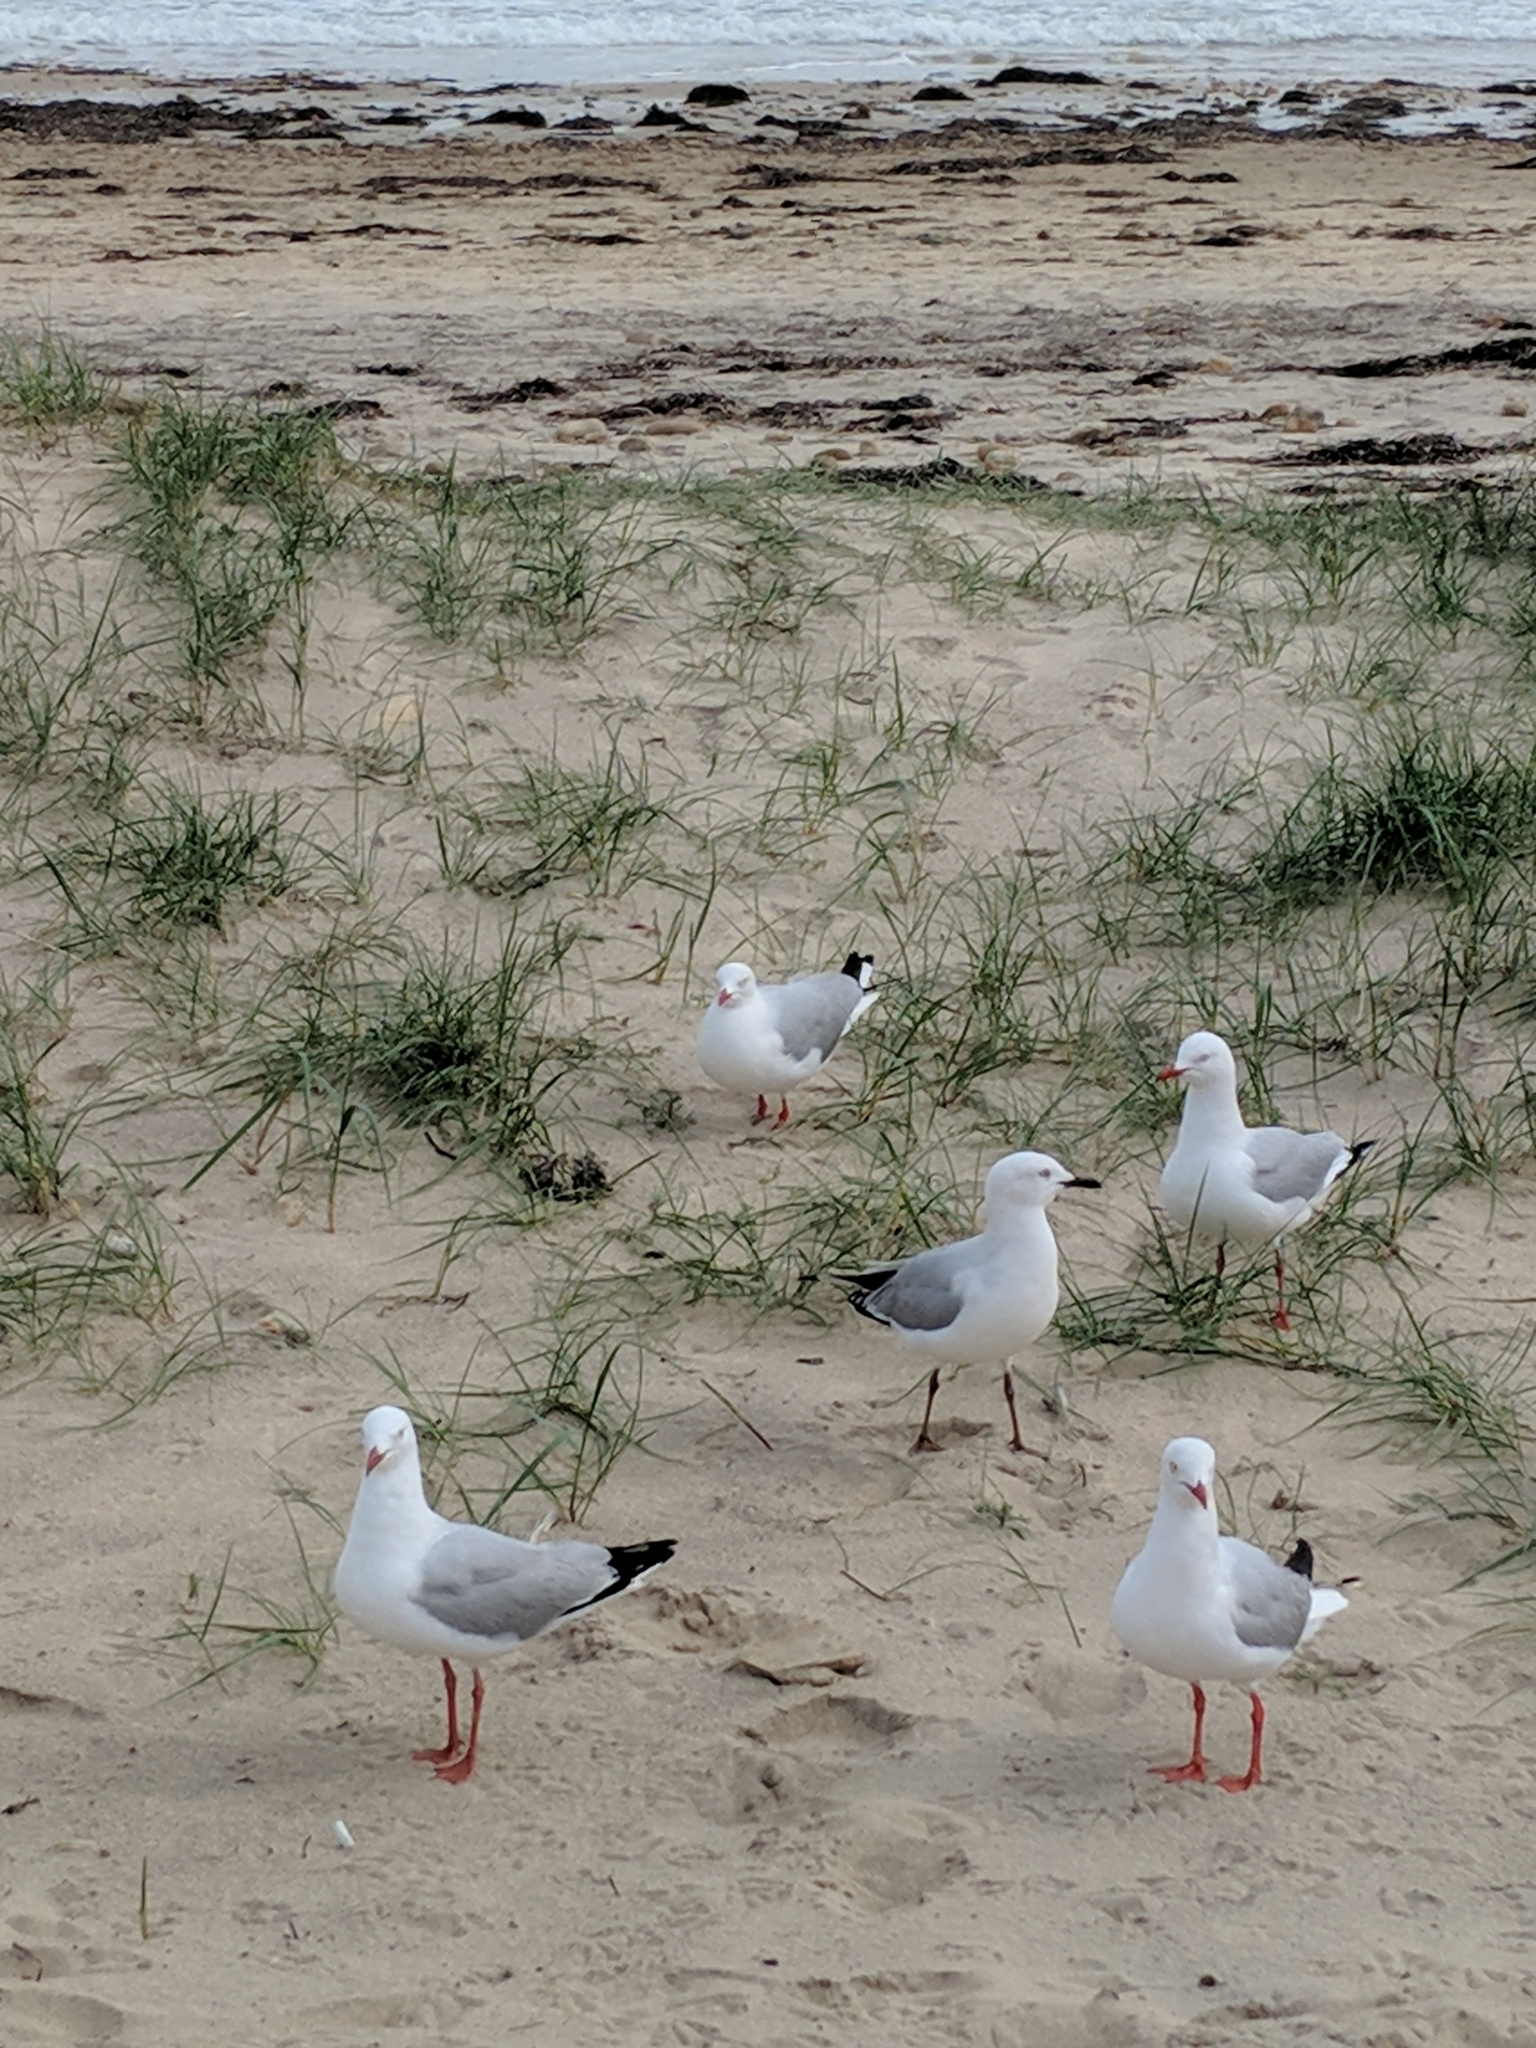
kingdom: Animalia
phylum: Chordata
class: Aves
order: Charadriiformes
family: Laridae
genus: Chroicocephalus
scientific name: Chroicocephalus novaehollandiae
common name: Silver gull
